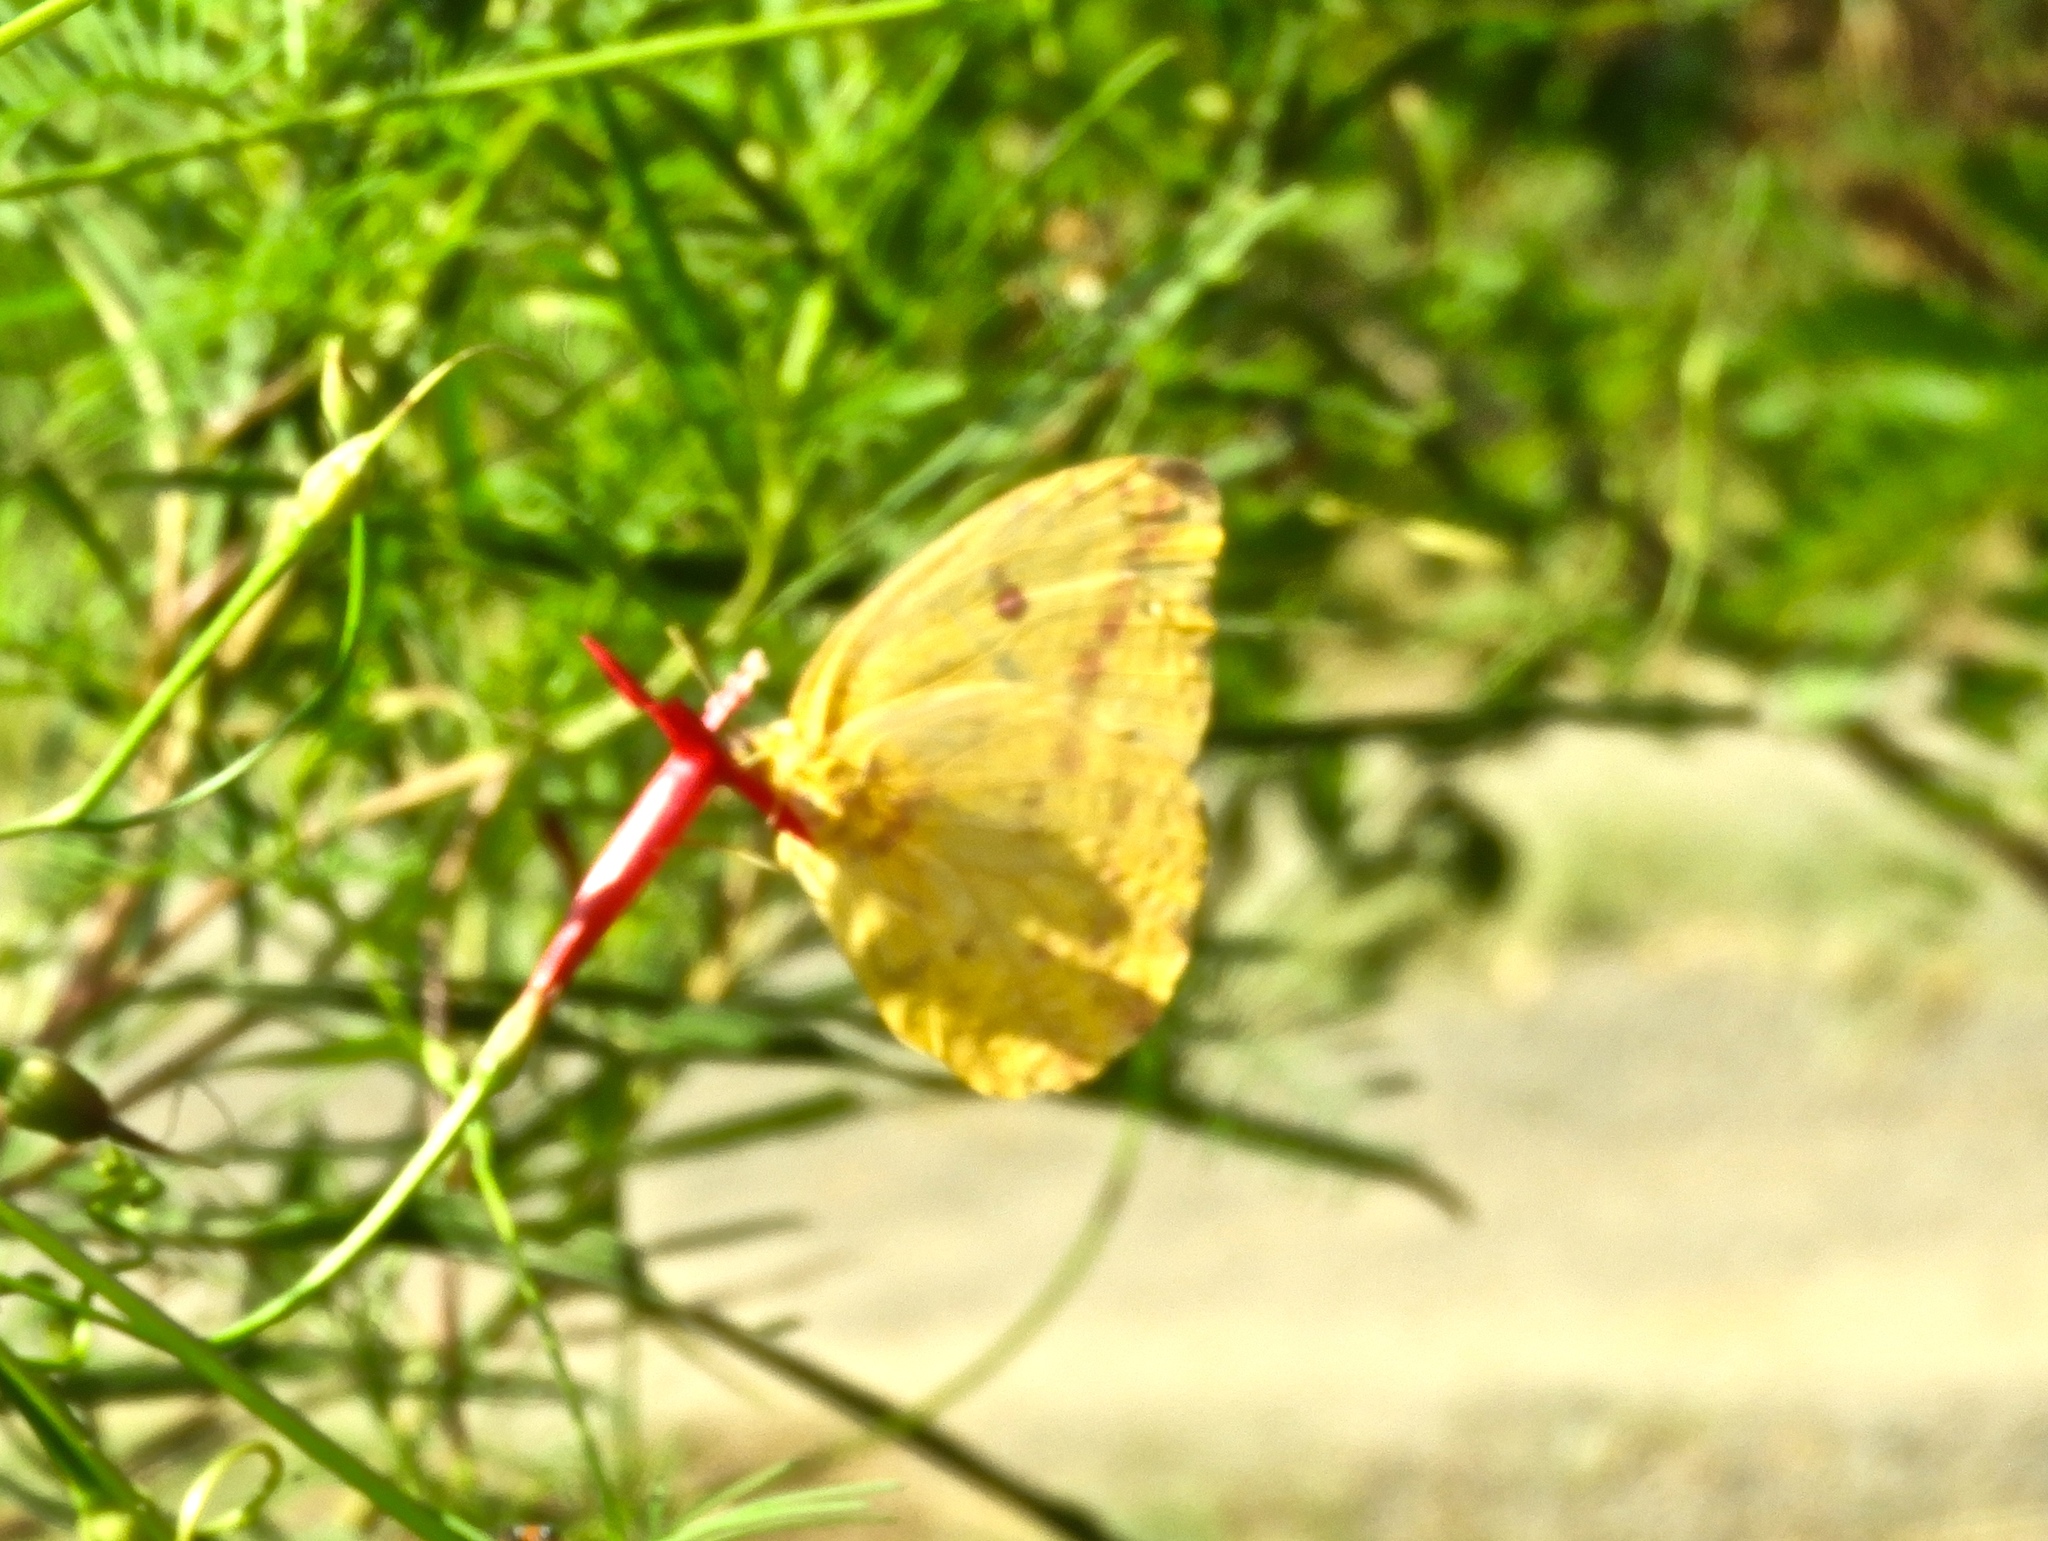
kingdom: Animalia
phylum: Arthropoda
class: Insecta
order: Lepidoptera
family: Pieridae
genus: Phoebis
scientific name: Phoebis agarithe
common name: Large orange sulphur
